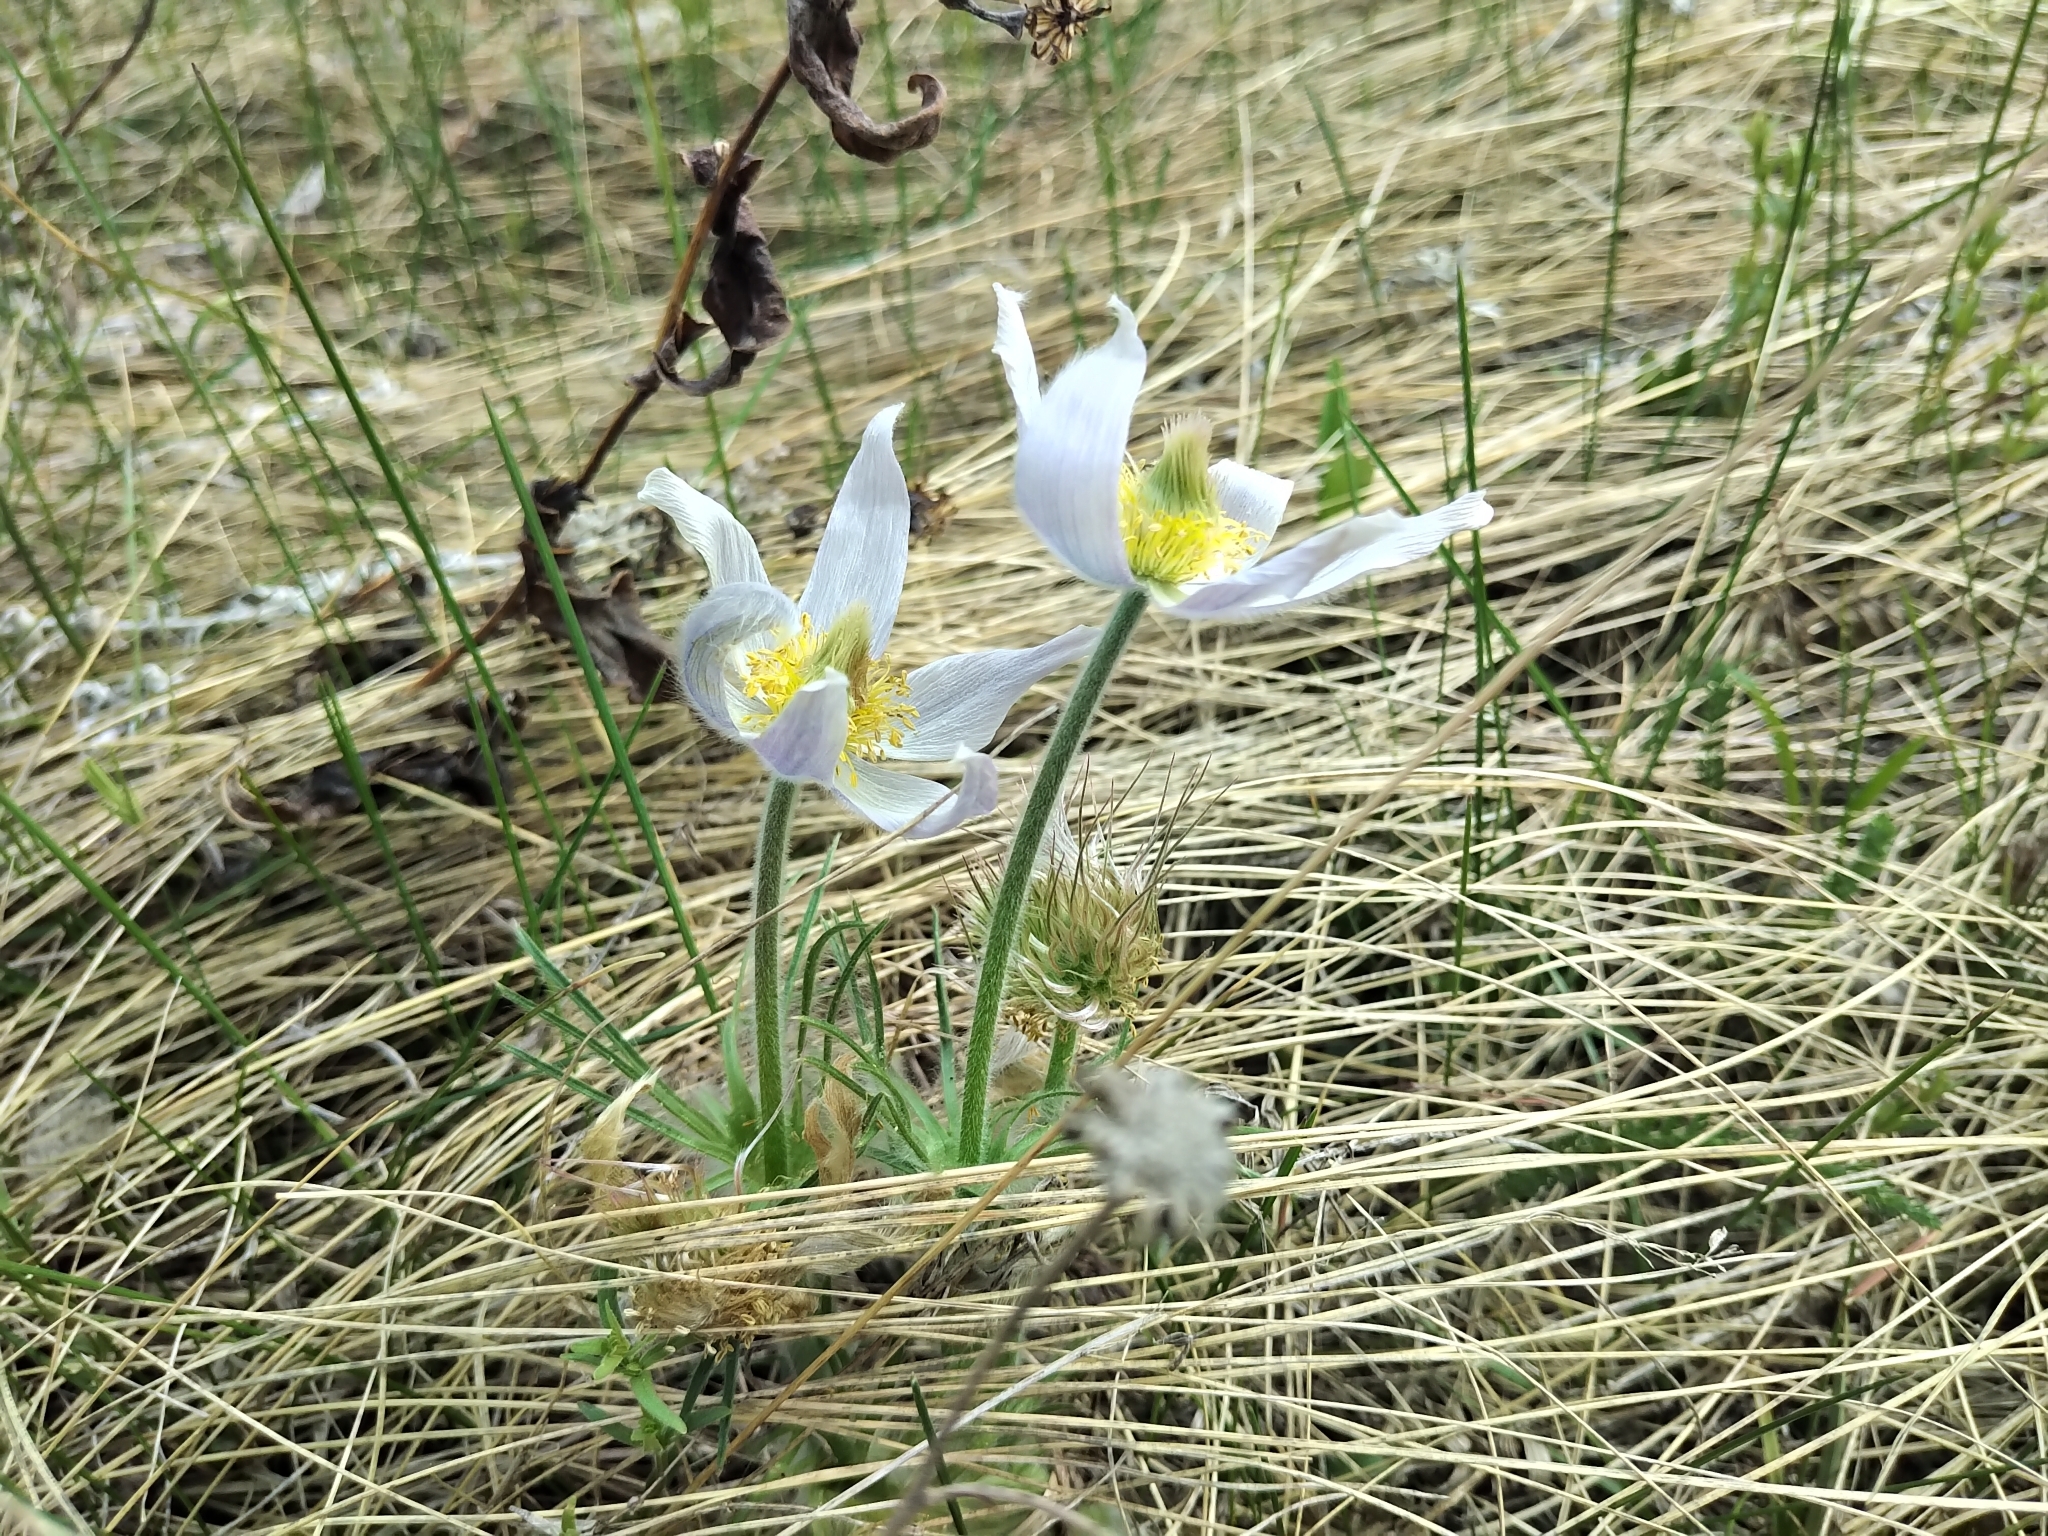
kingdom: Plantae
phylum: Tracheophyta
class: Magnoliopsida
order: Ranunculales
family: Ranunculaceae
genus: Pulsatilla
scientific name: Pulsatilla nuttalliana
